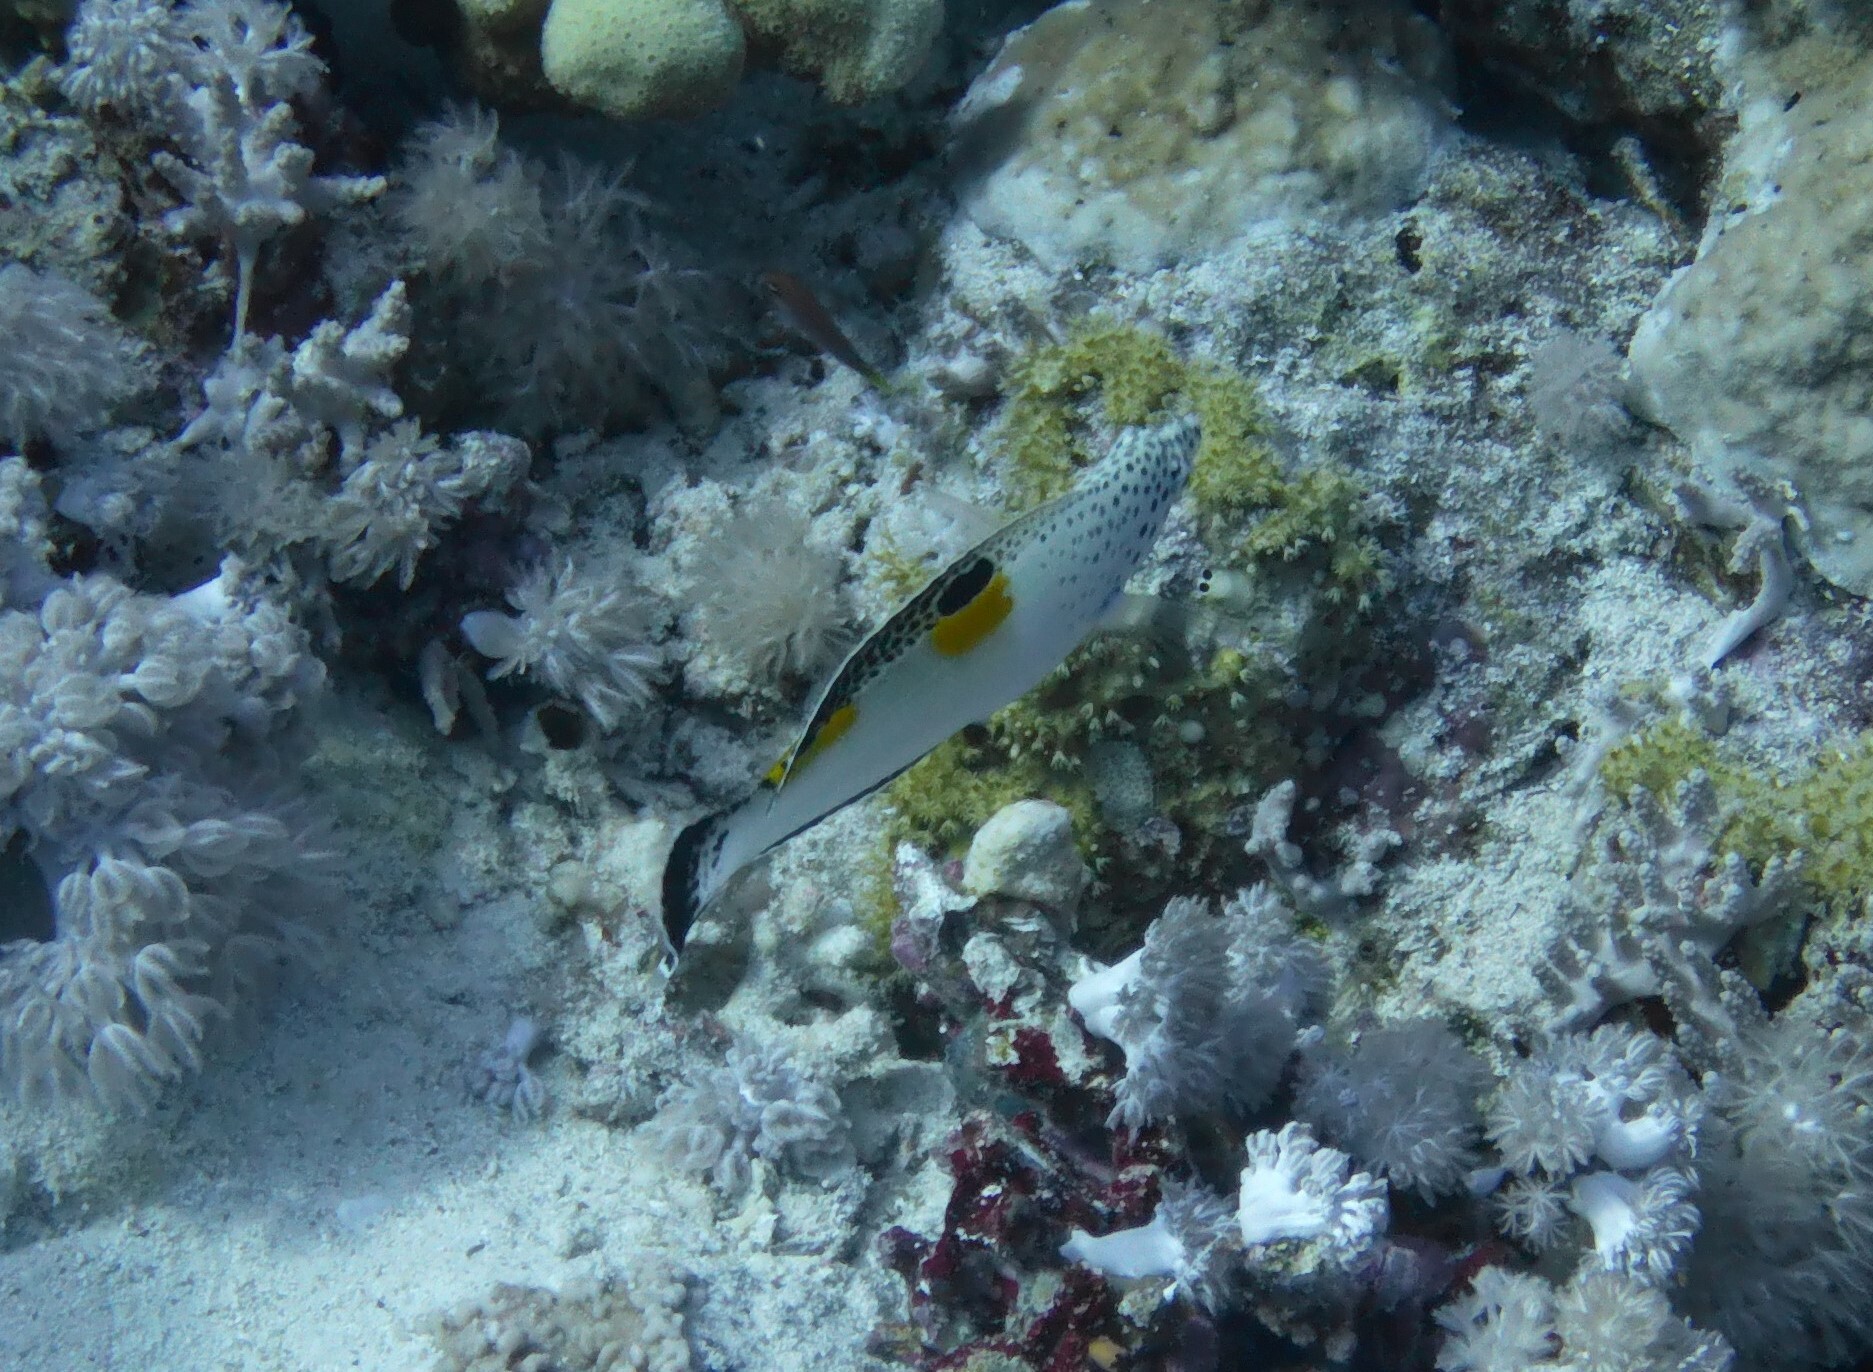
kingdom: Animalia
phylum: Chordata
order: Perciformes
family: Labridae
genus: Coris
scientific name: Coris aygula
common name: Clown coris
